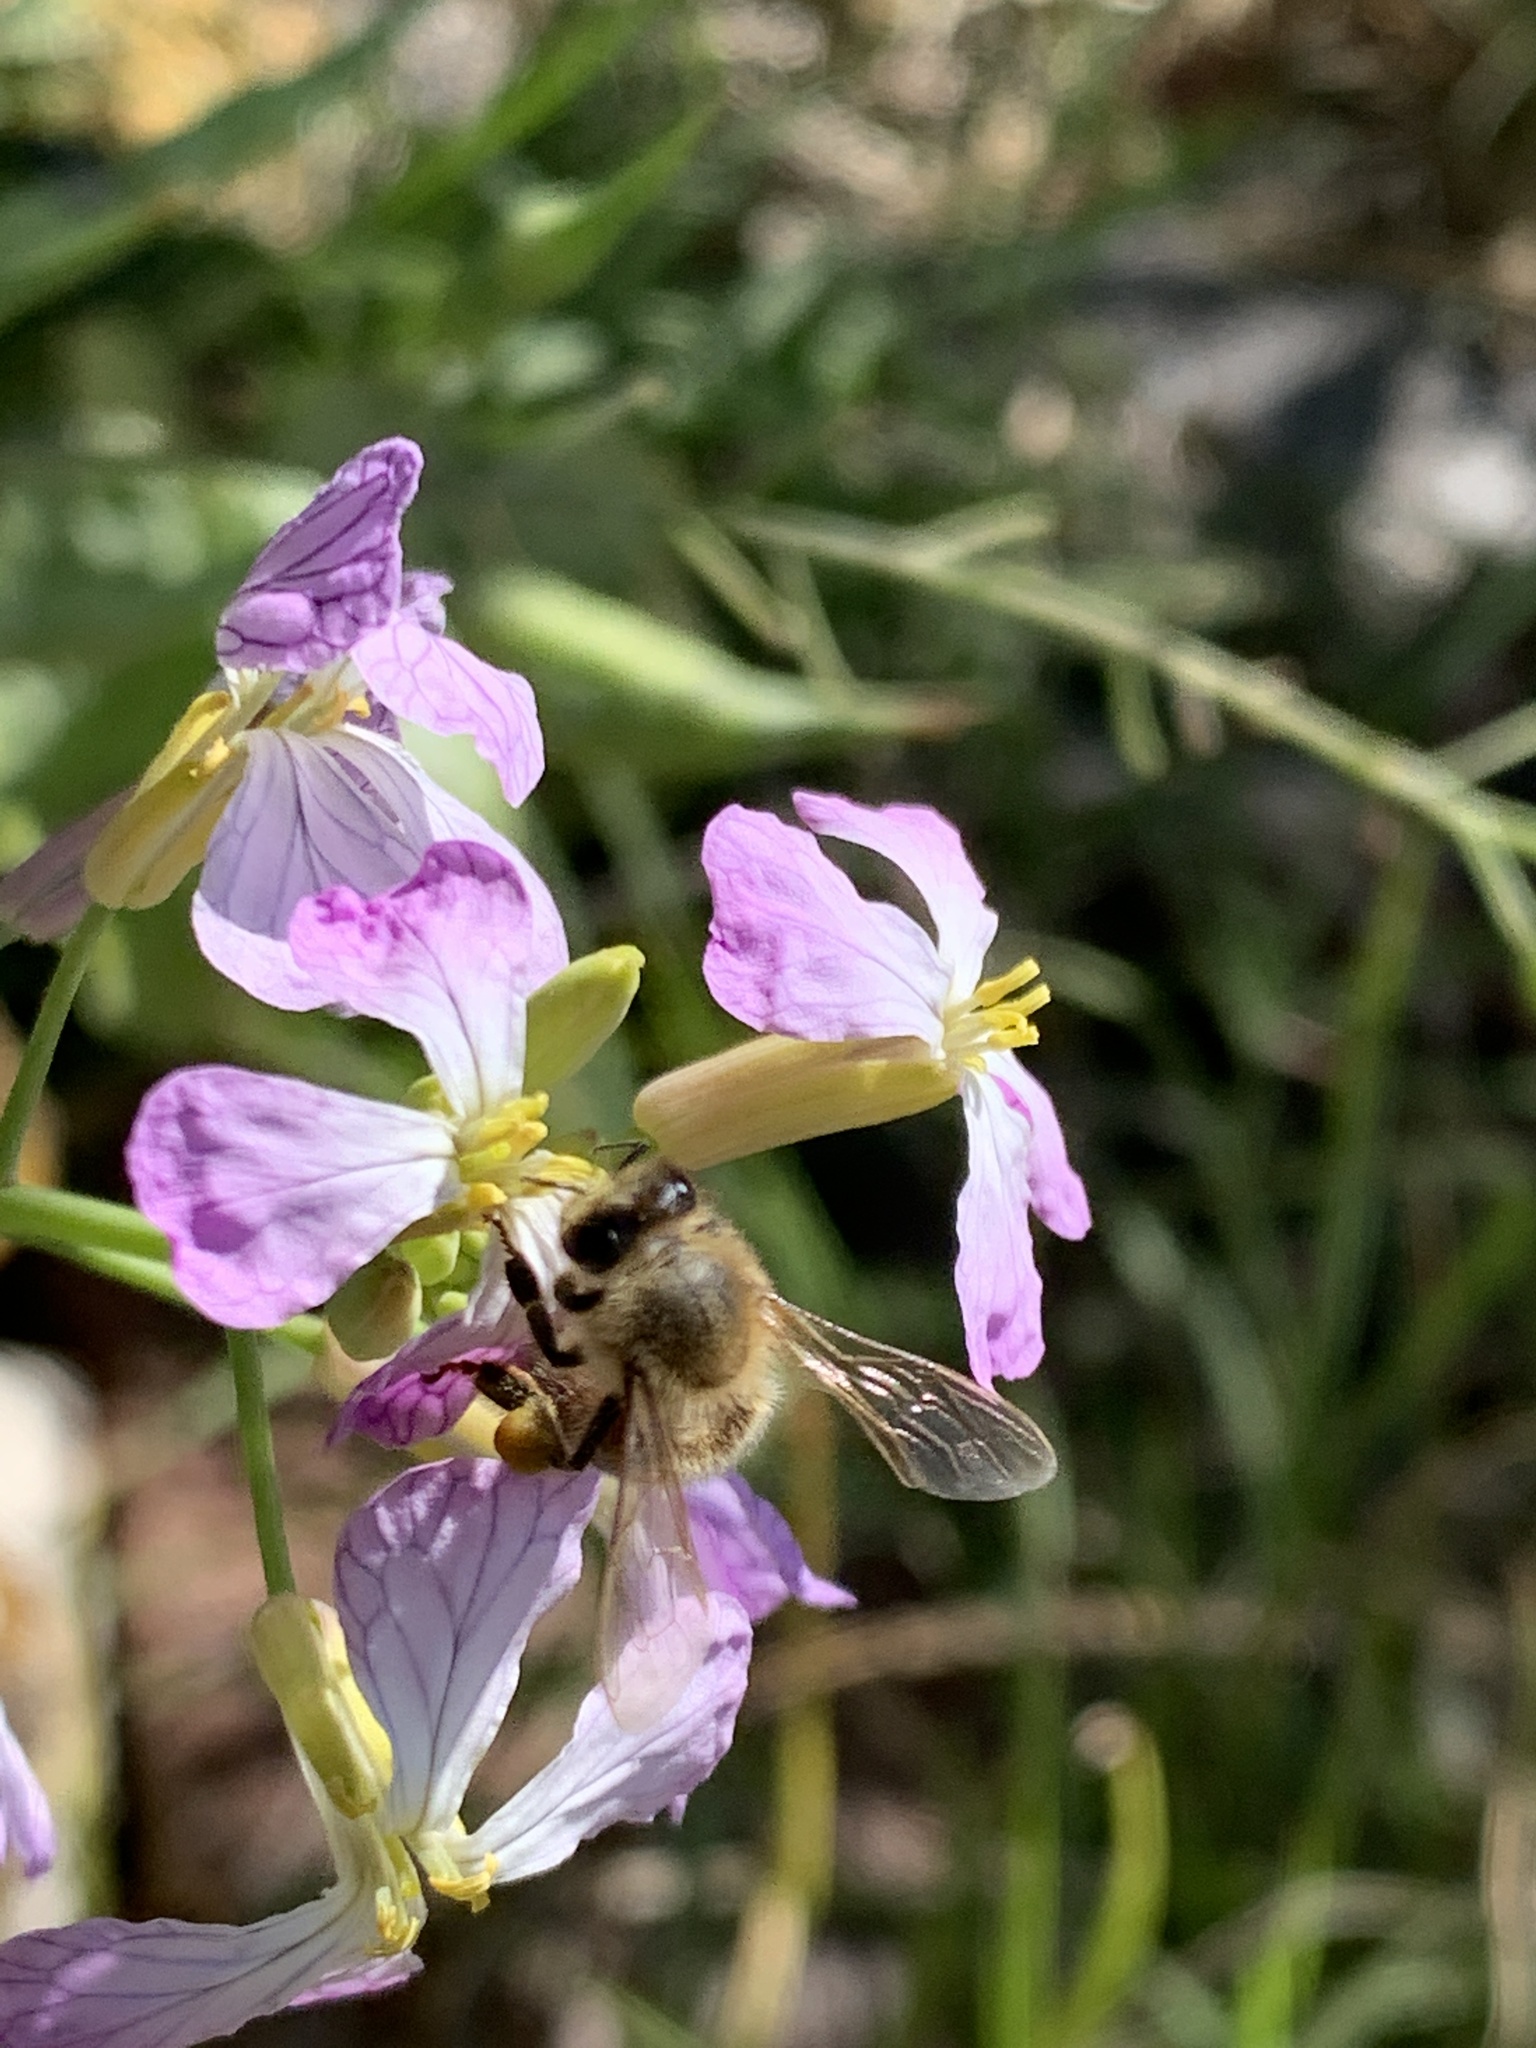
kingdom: Animalia
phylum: Arthropoda
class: Insecta
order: Hymenoptera
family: Apidae
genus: Apis
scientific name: Apis mellifera
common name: Honey bee
